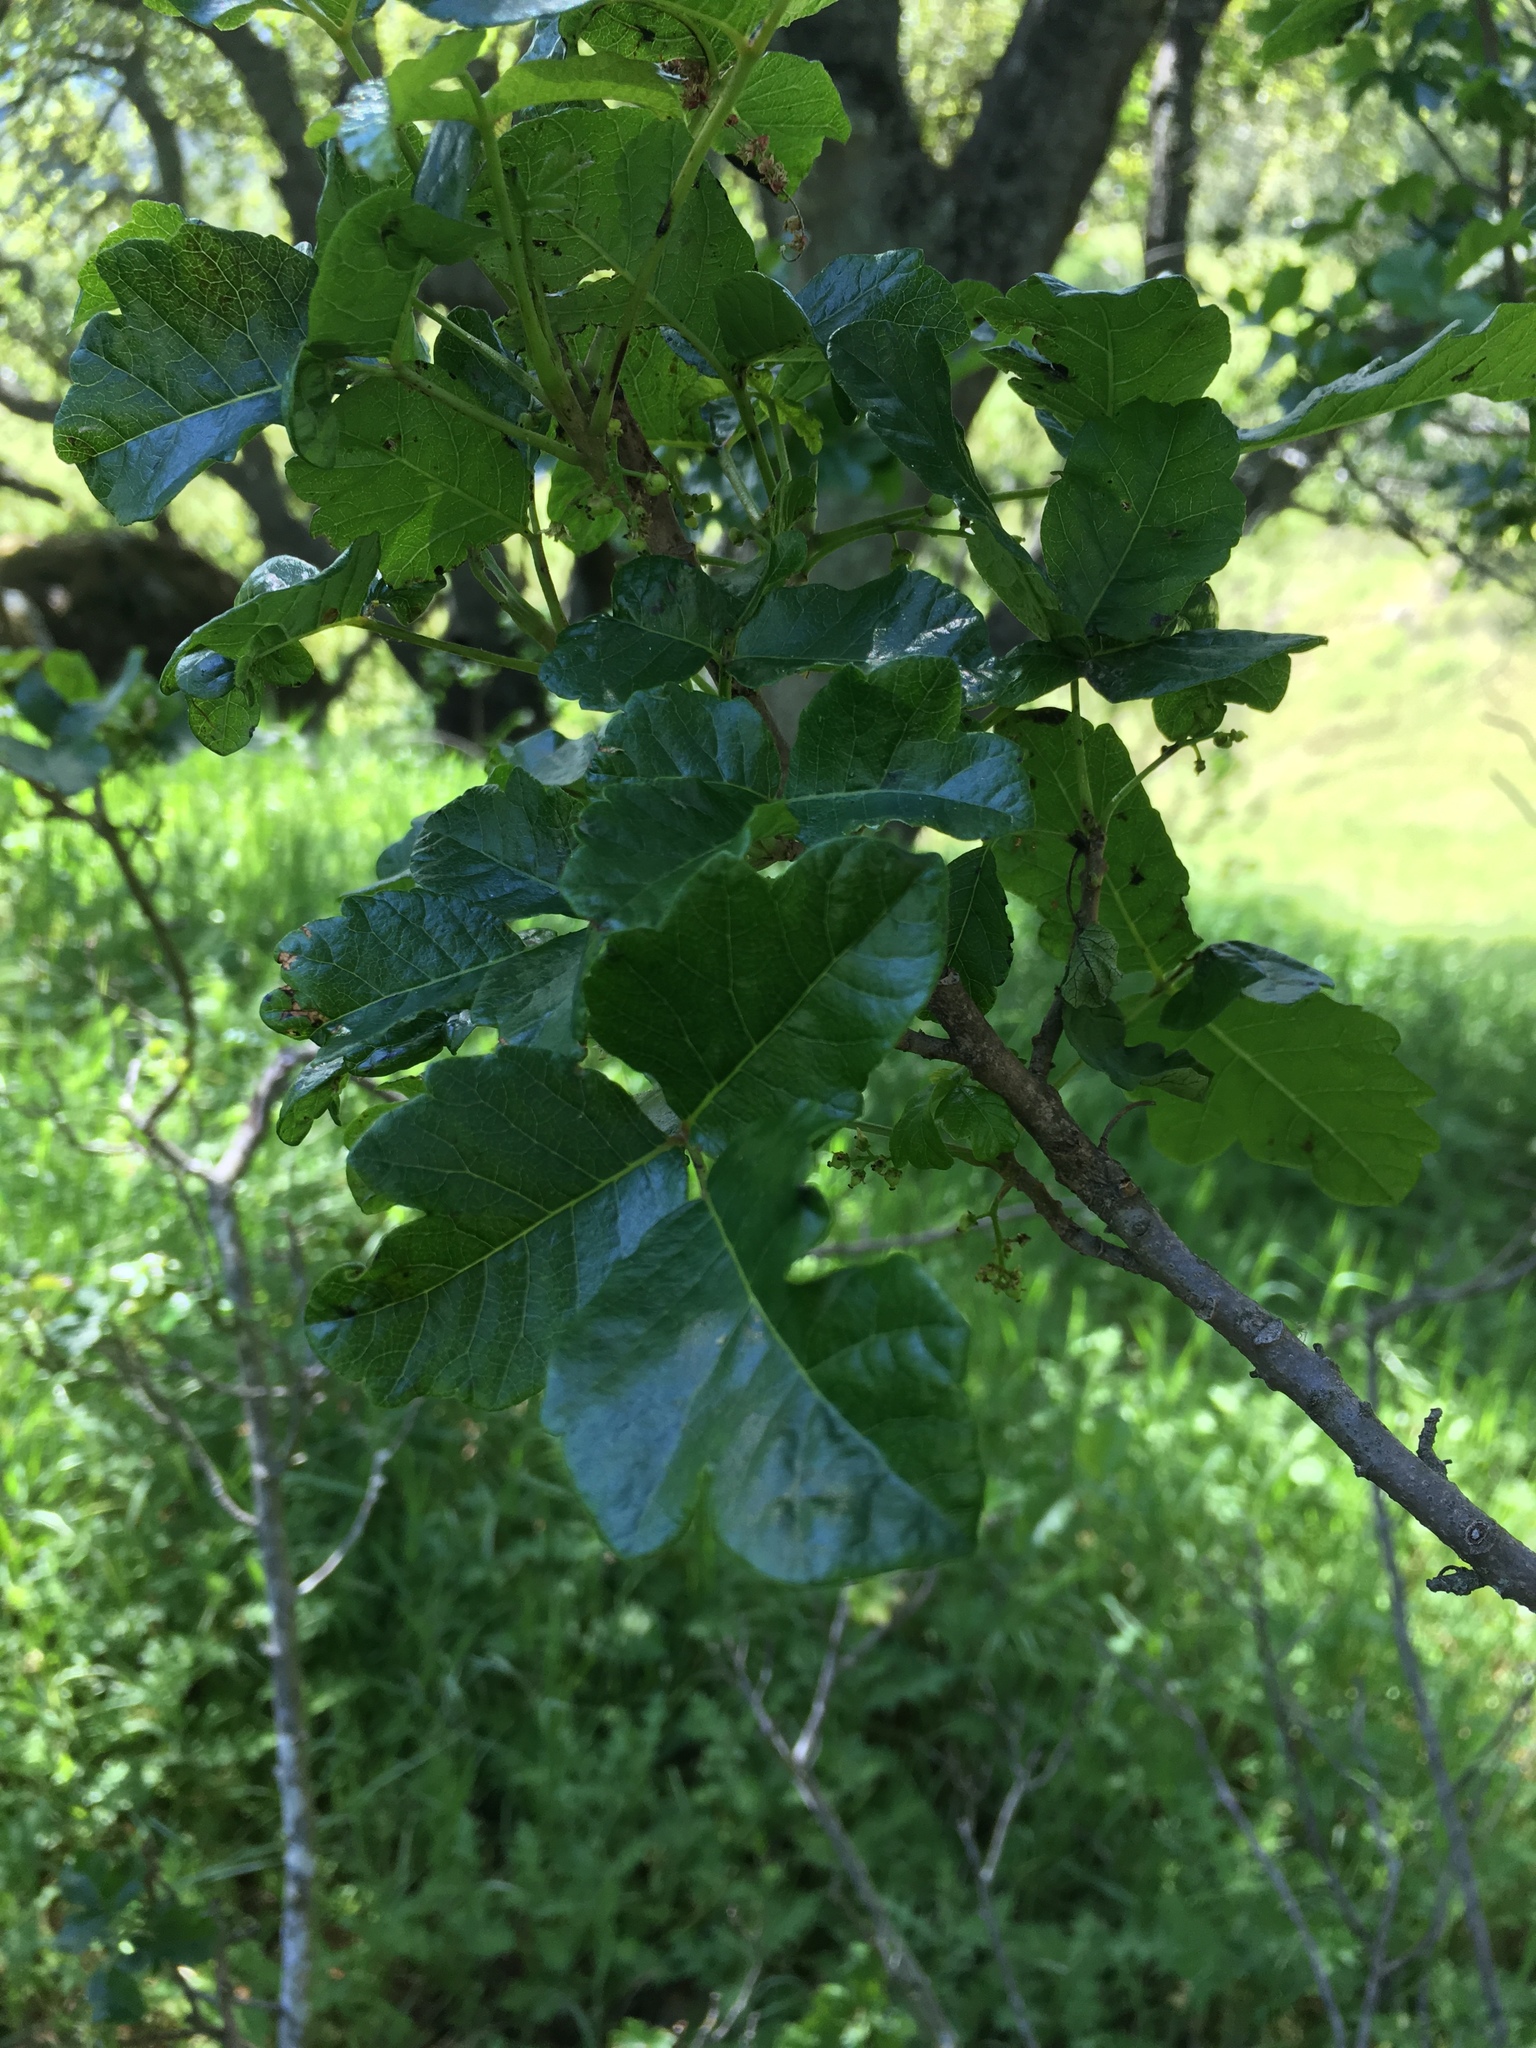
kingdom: Plantae
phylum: Tracheophyta
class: Magnoliopsida
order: Sapindales
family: Anacardiaceae
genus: Toxicodendron
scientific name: Toxicodendron diversilobum
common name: Pacific poison-oak
